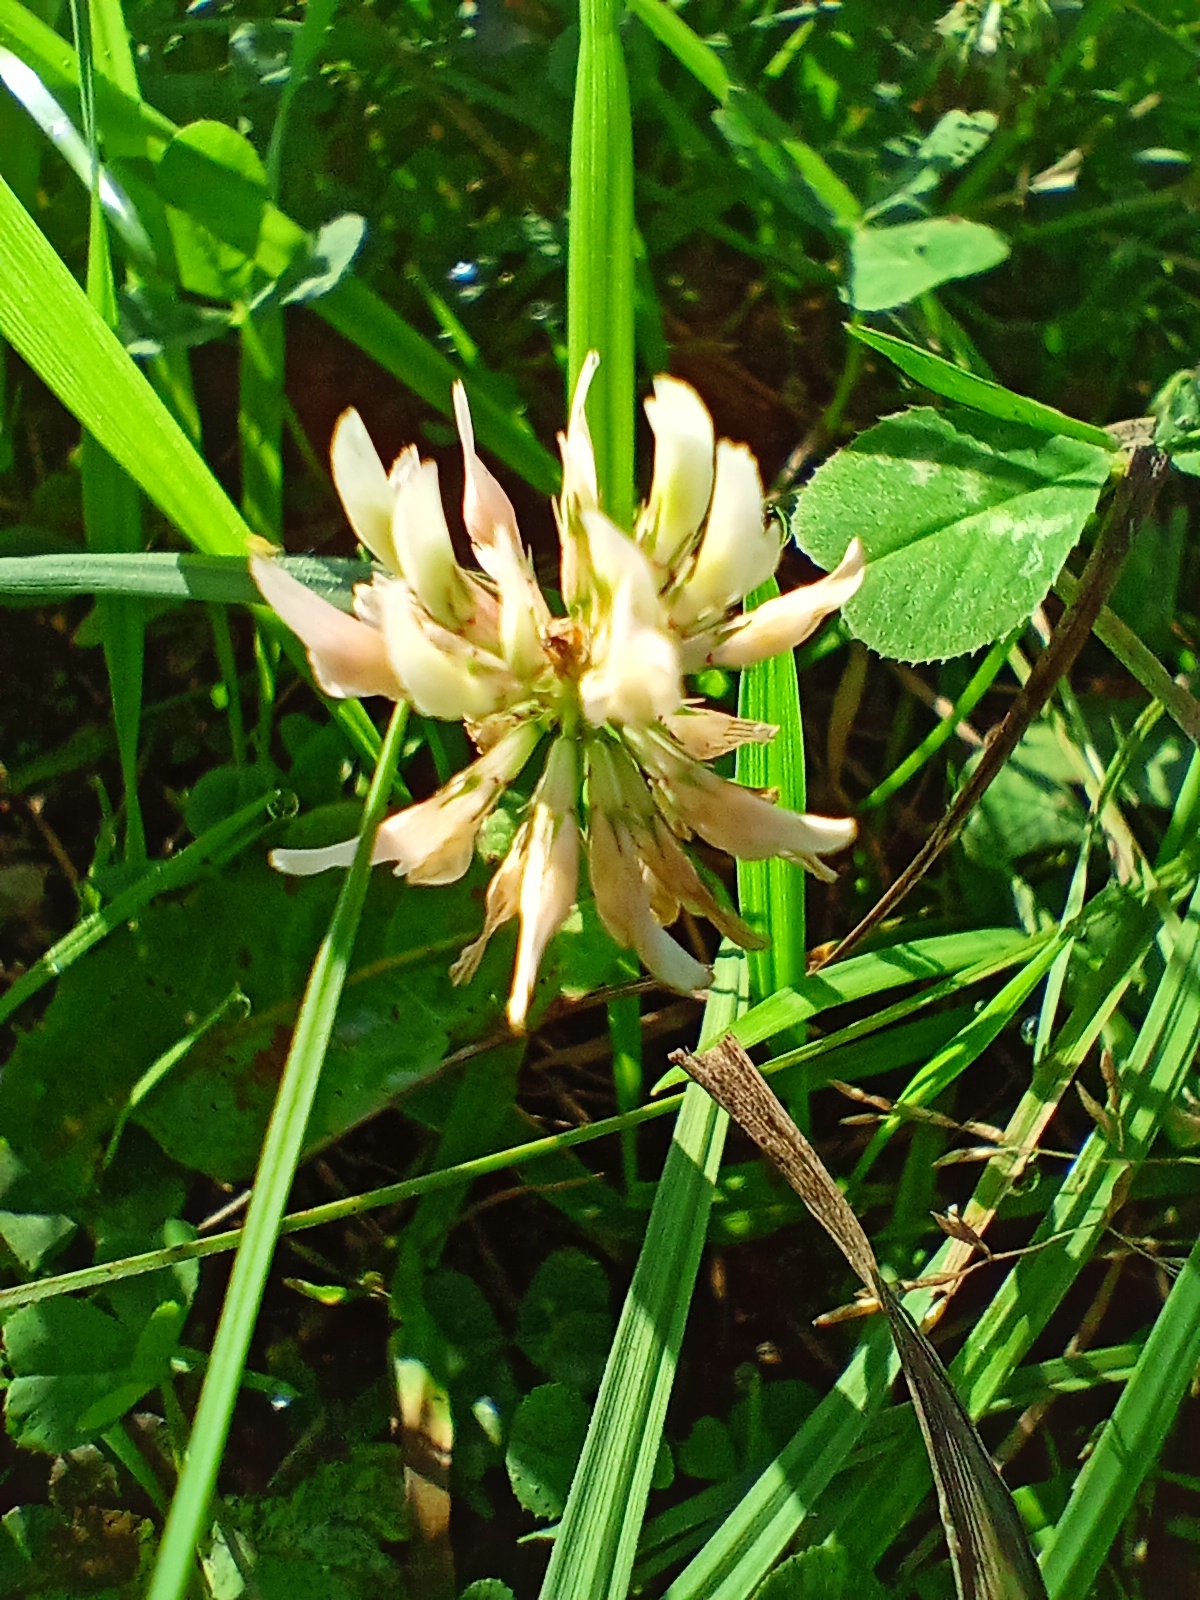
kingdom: Plantae
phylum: Tracheophyta
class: Magnoliopsida
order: Fabales
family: Fabaceae
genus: Trifolium
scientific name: Trifolium repens
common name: White clover
